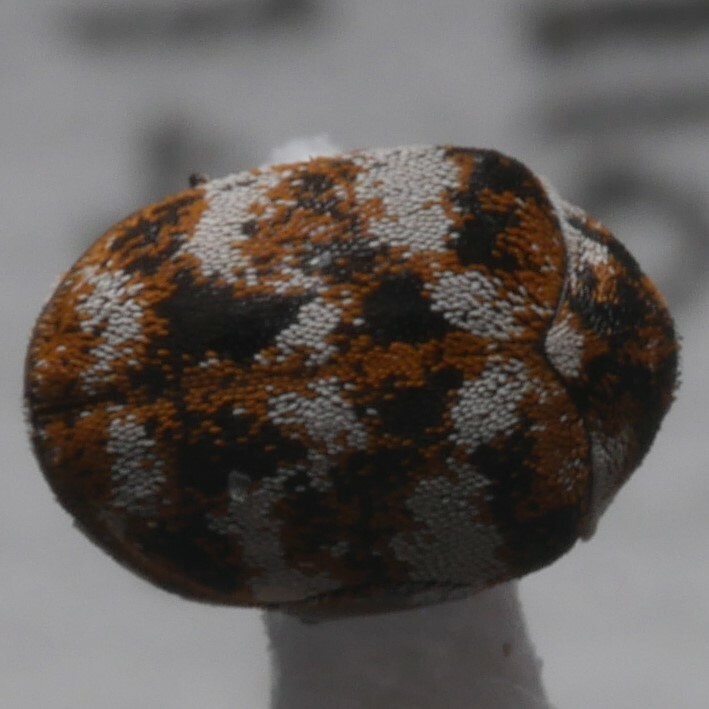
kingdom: Animalia
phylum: Arthropoda
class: Insecta
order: Coleoptera
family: Dermestidae
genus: Anthrenus
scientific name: Anthrenus verbasci
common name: Varied carpet beetle
